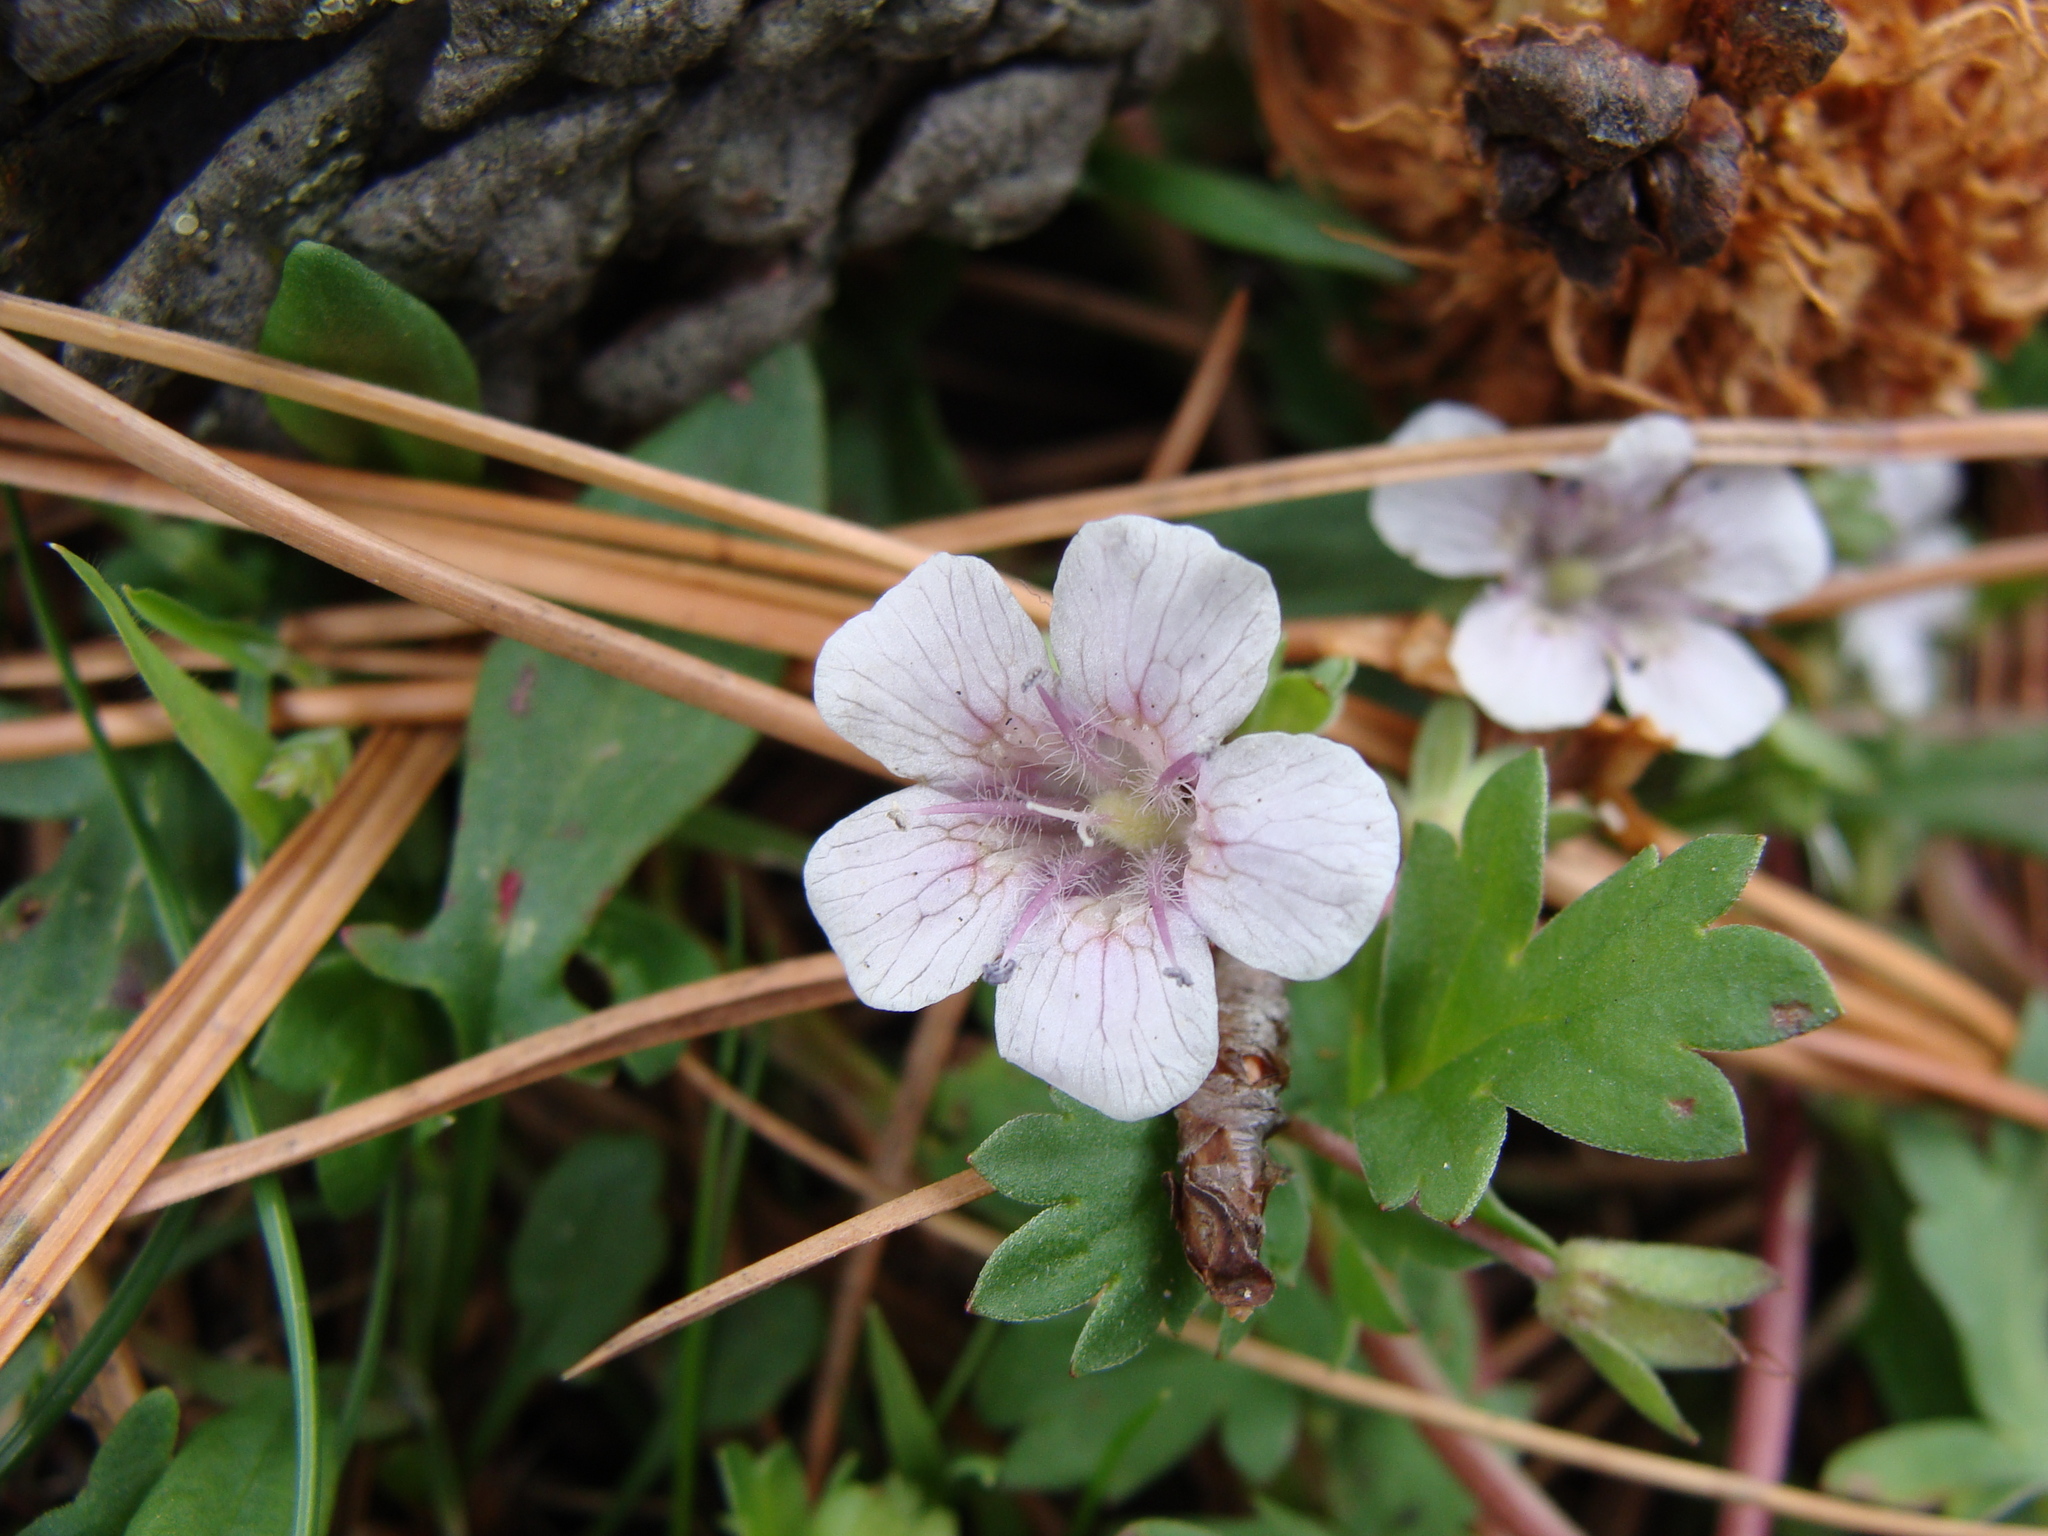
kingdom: Plantae
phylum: Tracheophyta
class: Magnoliopsida
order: Boraginales
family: Hydrophyllaceae
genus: Phacelia
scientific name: Phacelia platycarpa
